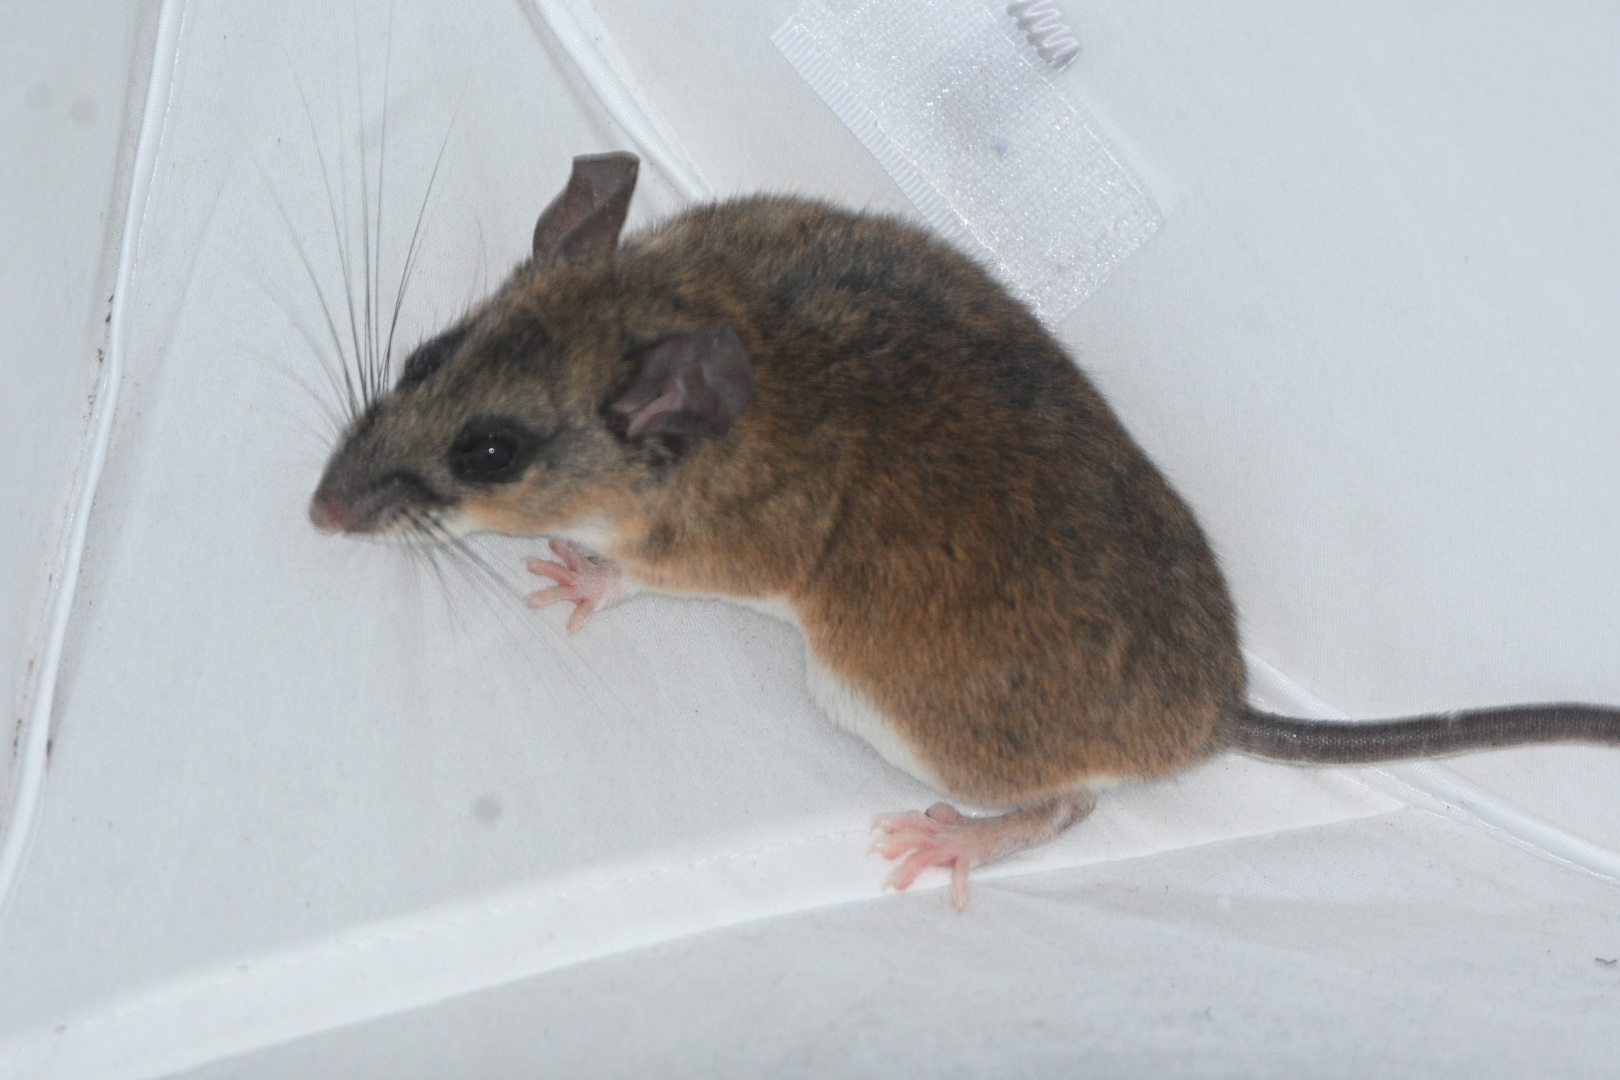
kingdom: Animalia
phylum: Chordata
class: Mammalia
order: Rodentia
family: Cricetidae
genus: Peromyscus
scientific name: Peromyscus
